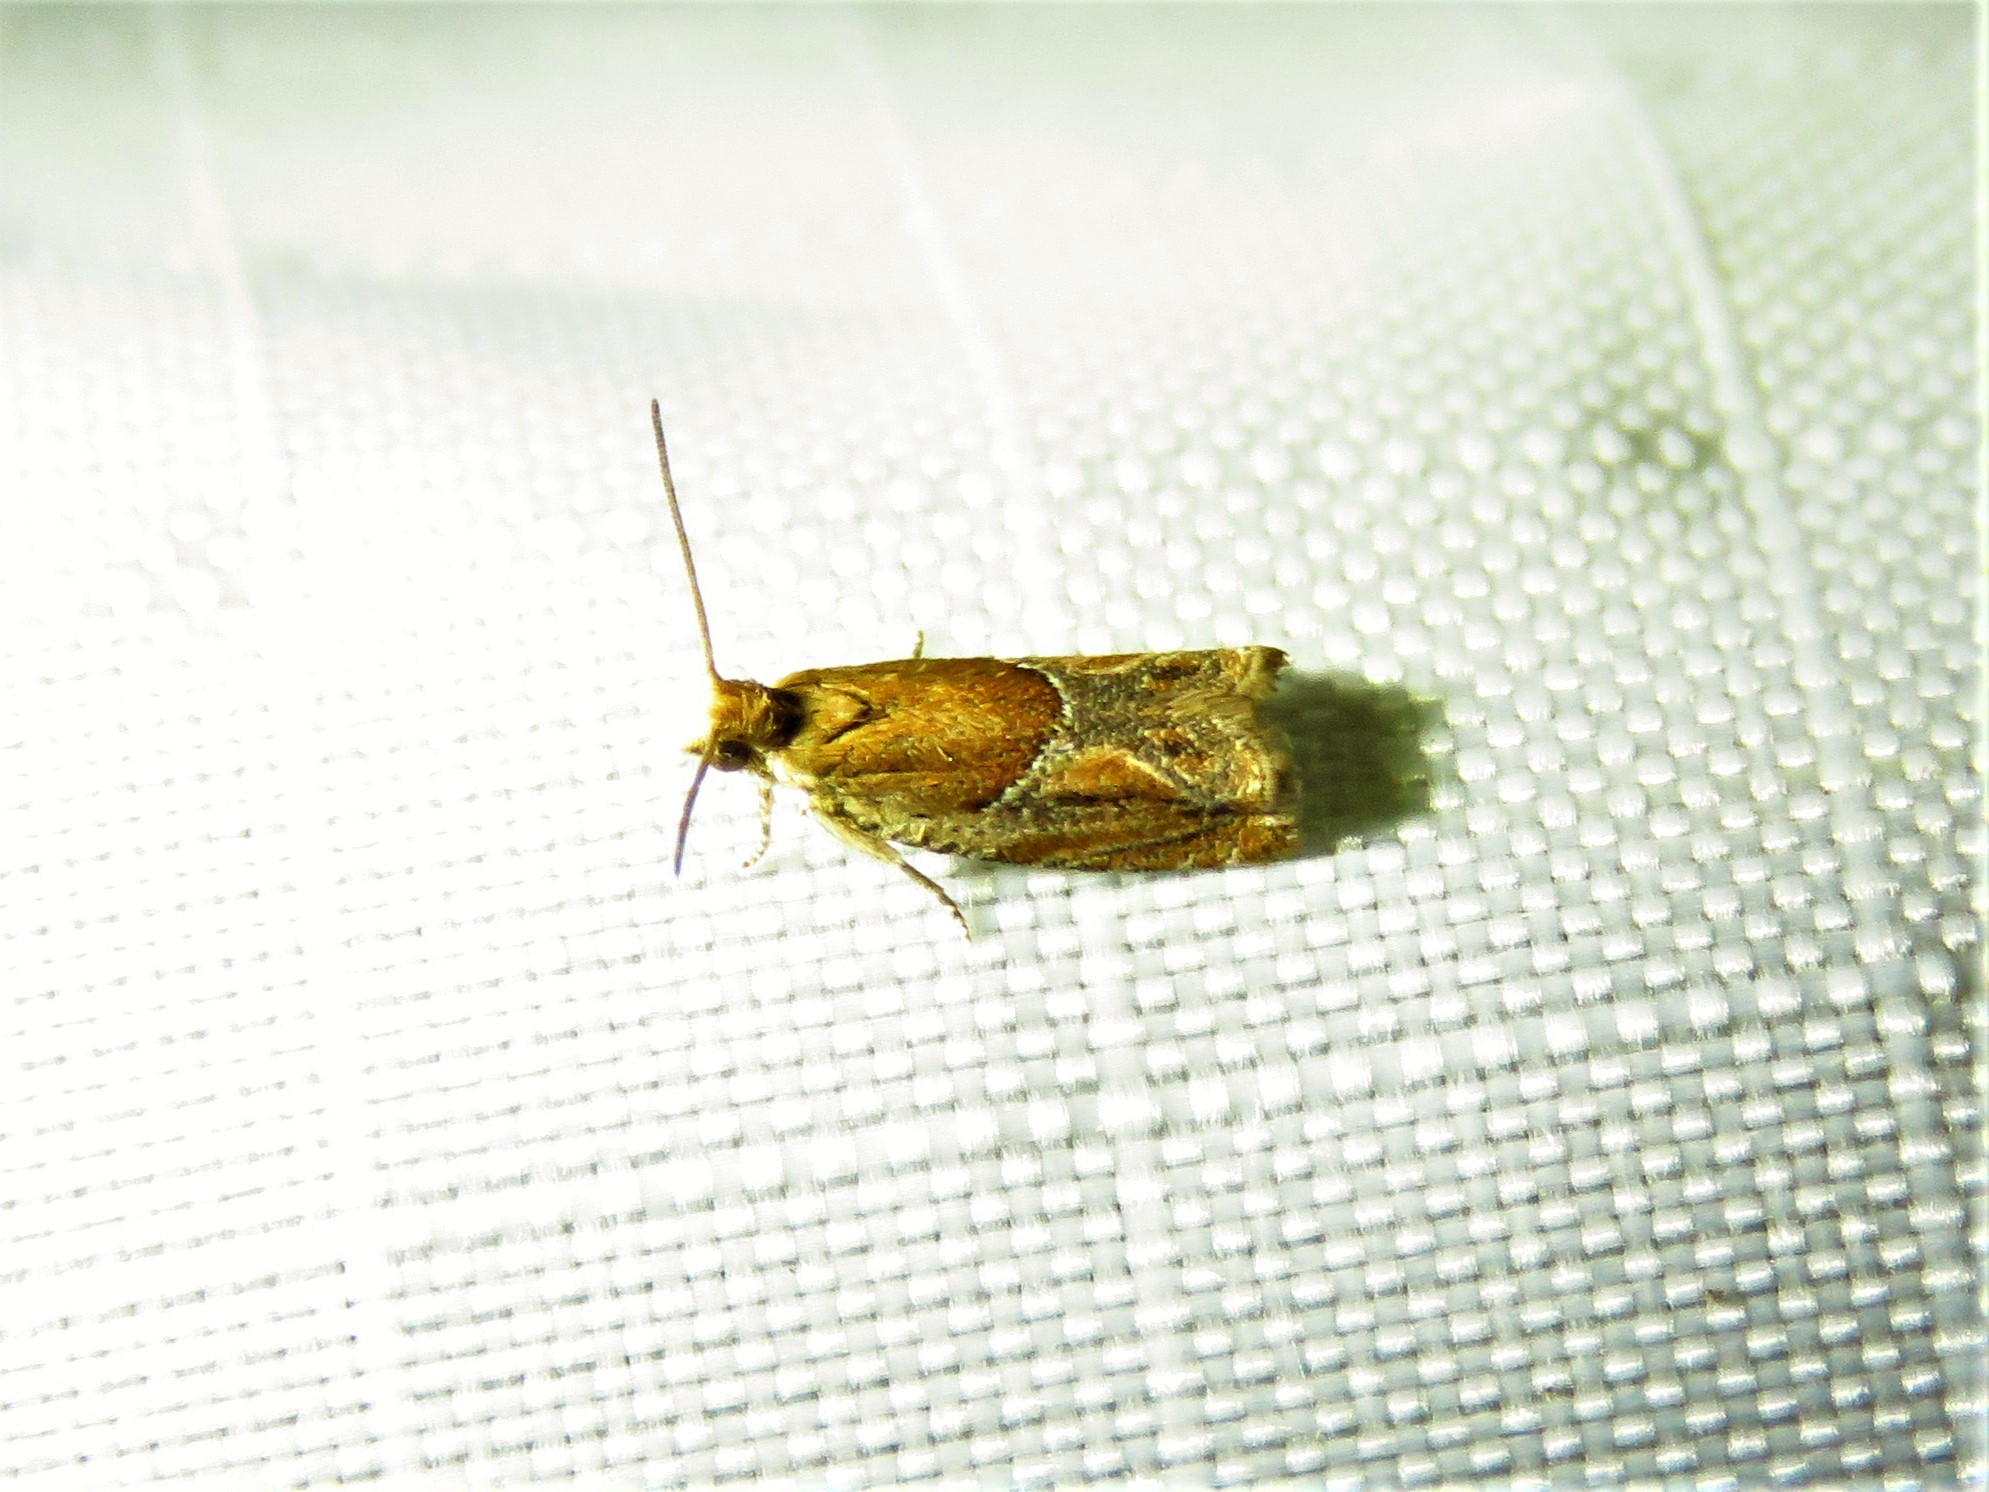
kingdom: Animalia
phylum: Arthropoda
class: Insecta
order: Lepidoptera
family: Tortricidae
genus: Ancylis
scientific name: Ancylis comptana
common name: Little roller
